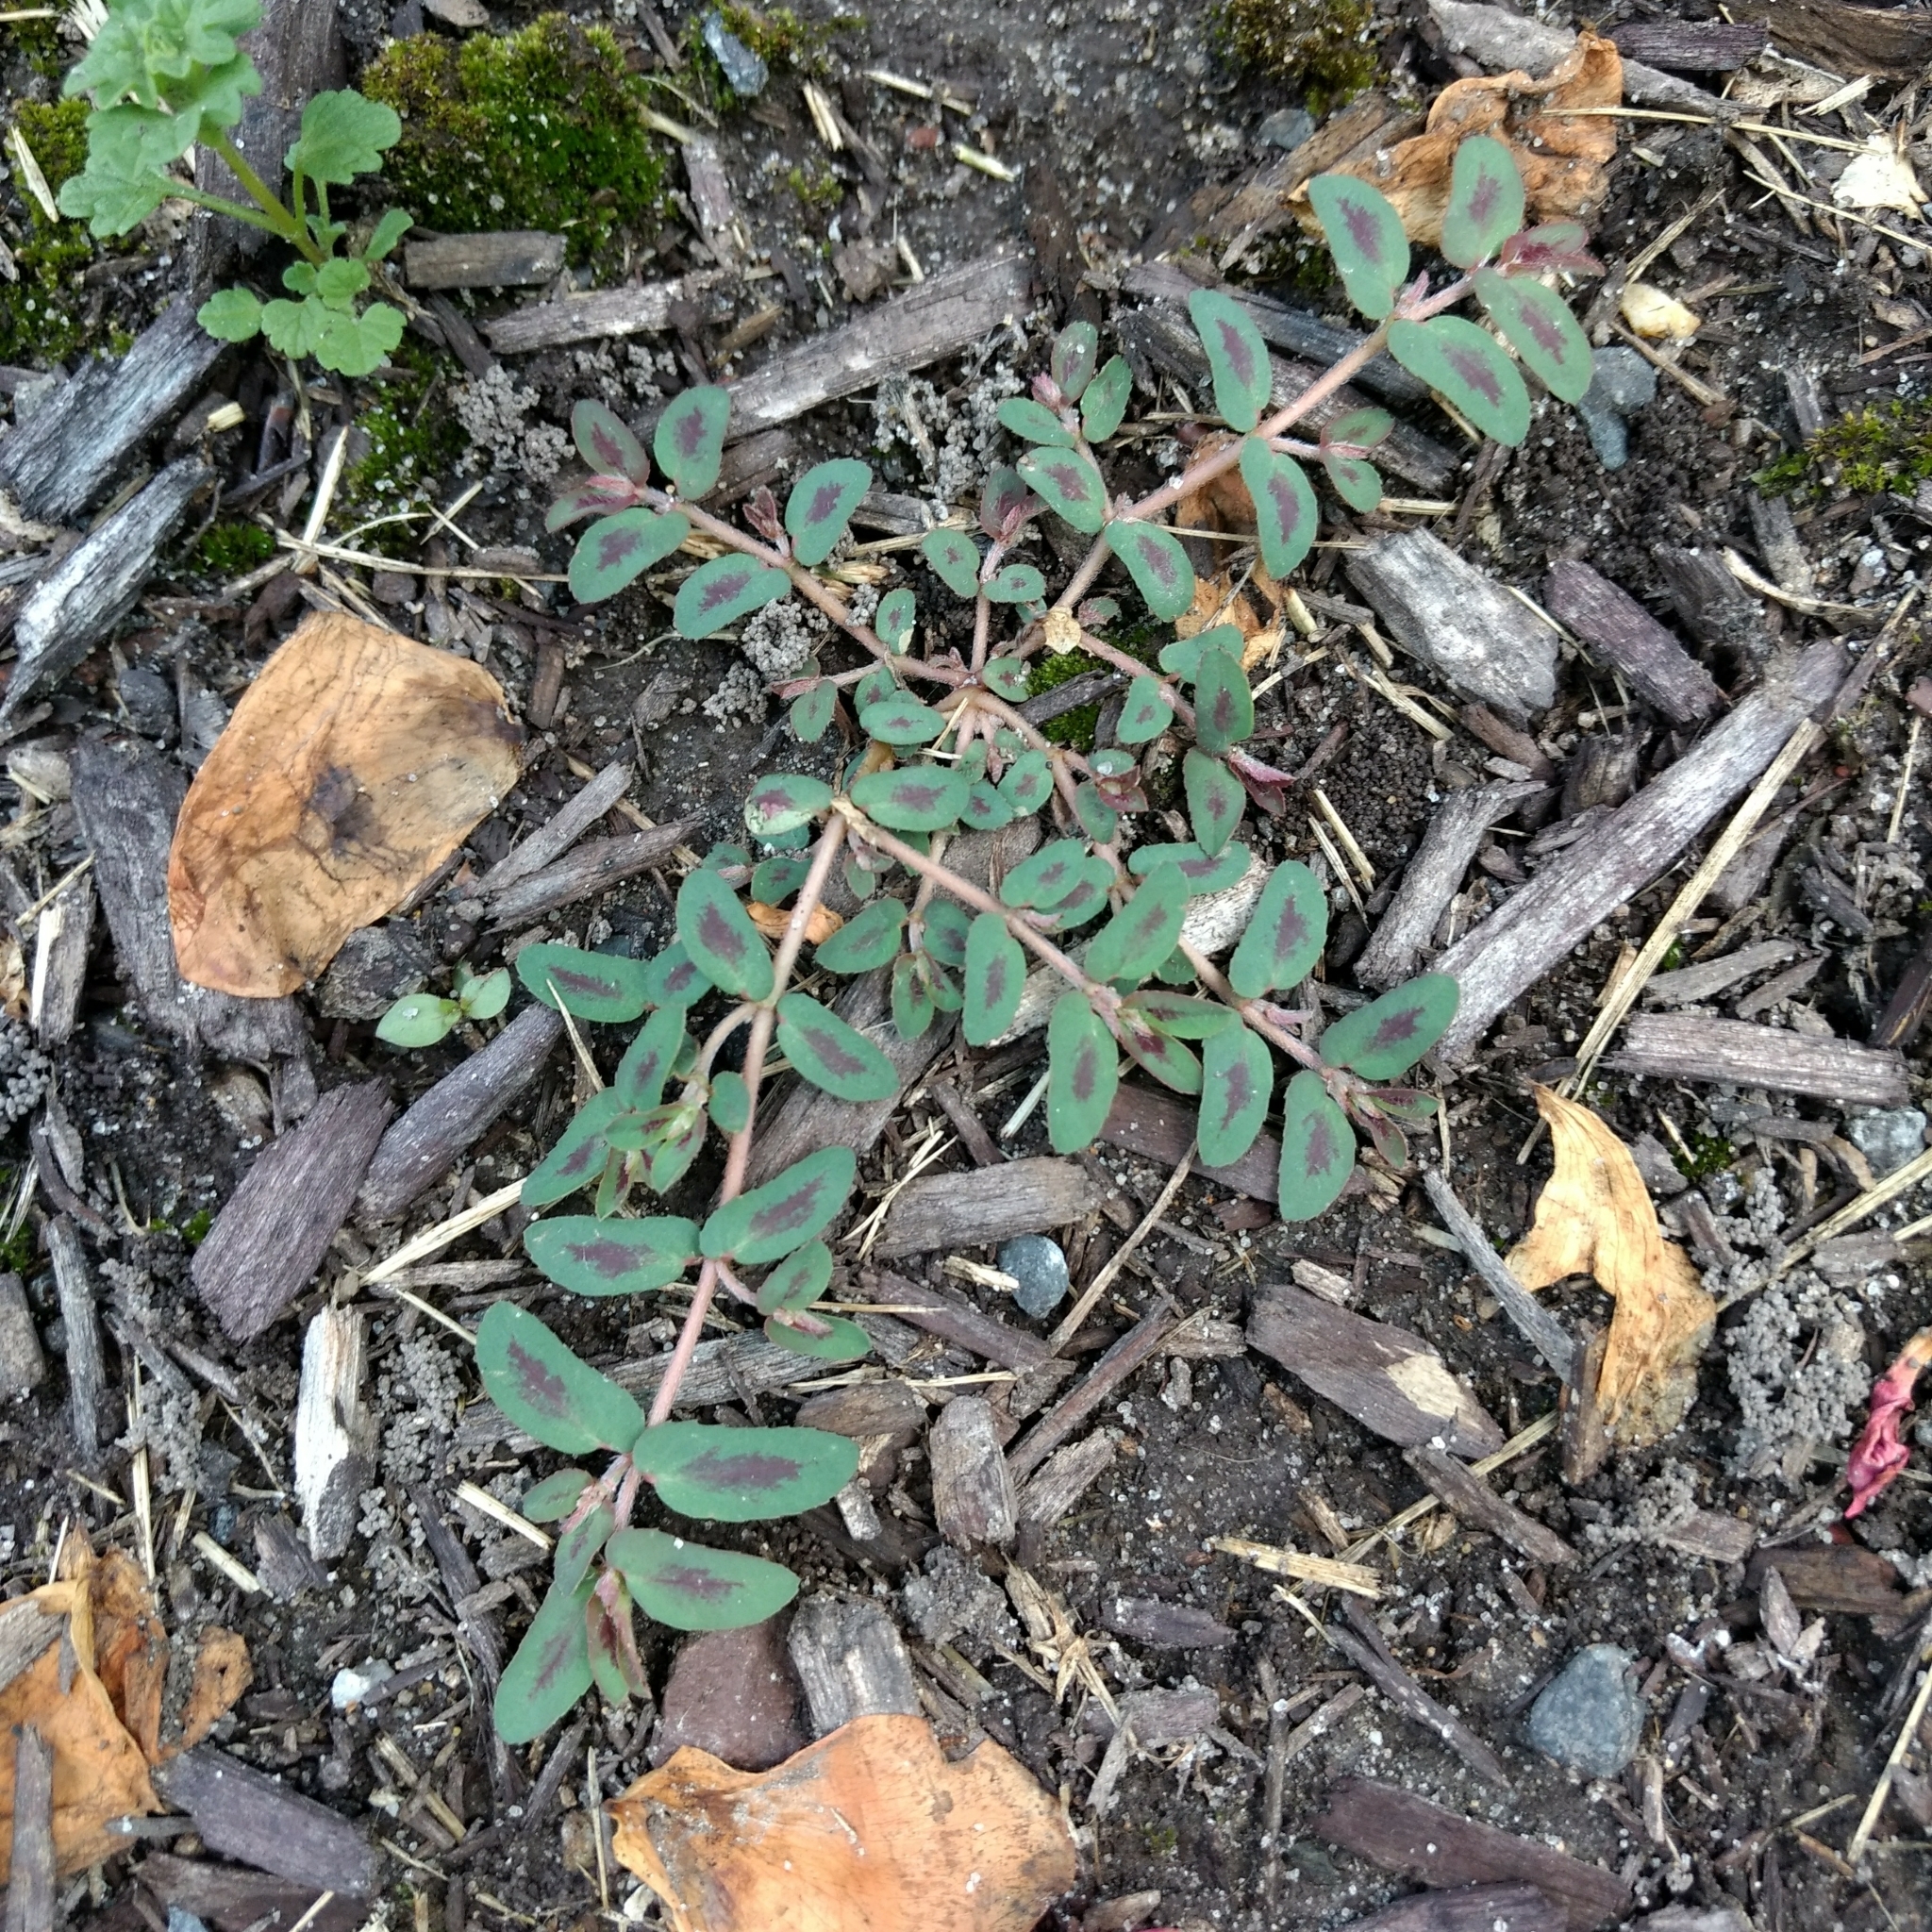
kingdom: Plantae
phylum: Tracheophyta
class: Magnoliopsida
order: Malpighiales
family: Euphorbiaceae
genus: Euphorbia
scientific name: Euphorbia maculata
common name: Spotted spurge
